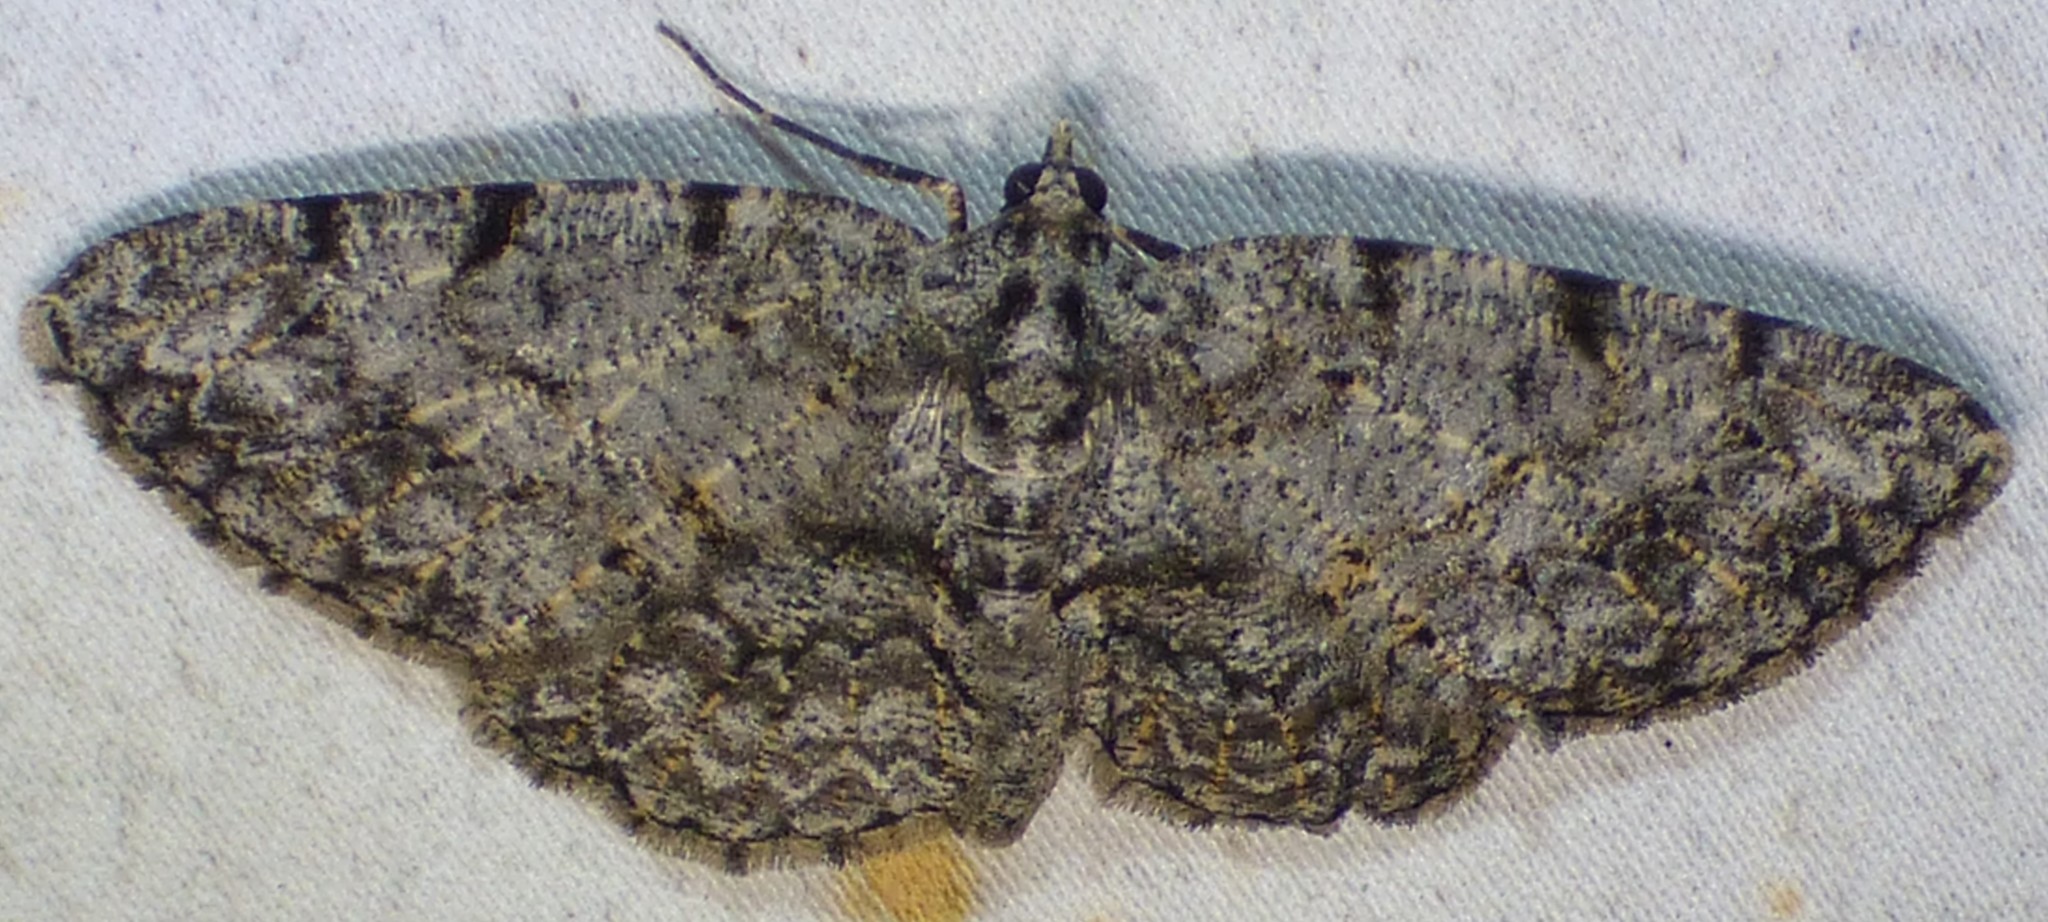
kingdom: Animalia
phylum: Arthropoda
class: Insecta
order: Lepidoptera
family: Geometridae
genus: Protoboarmia
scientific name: Protoboarmia porcelaria
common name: Porcelain gray
